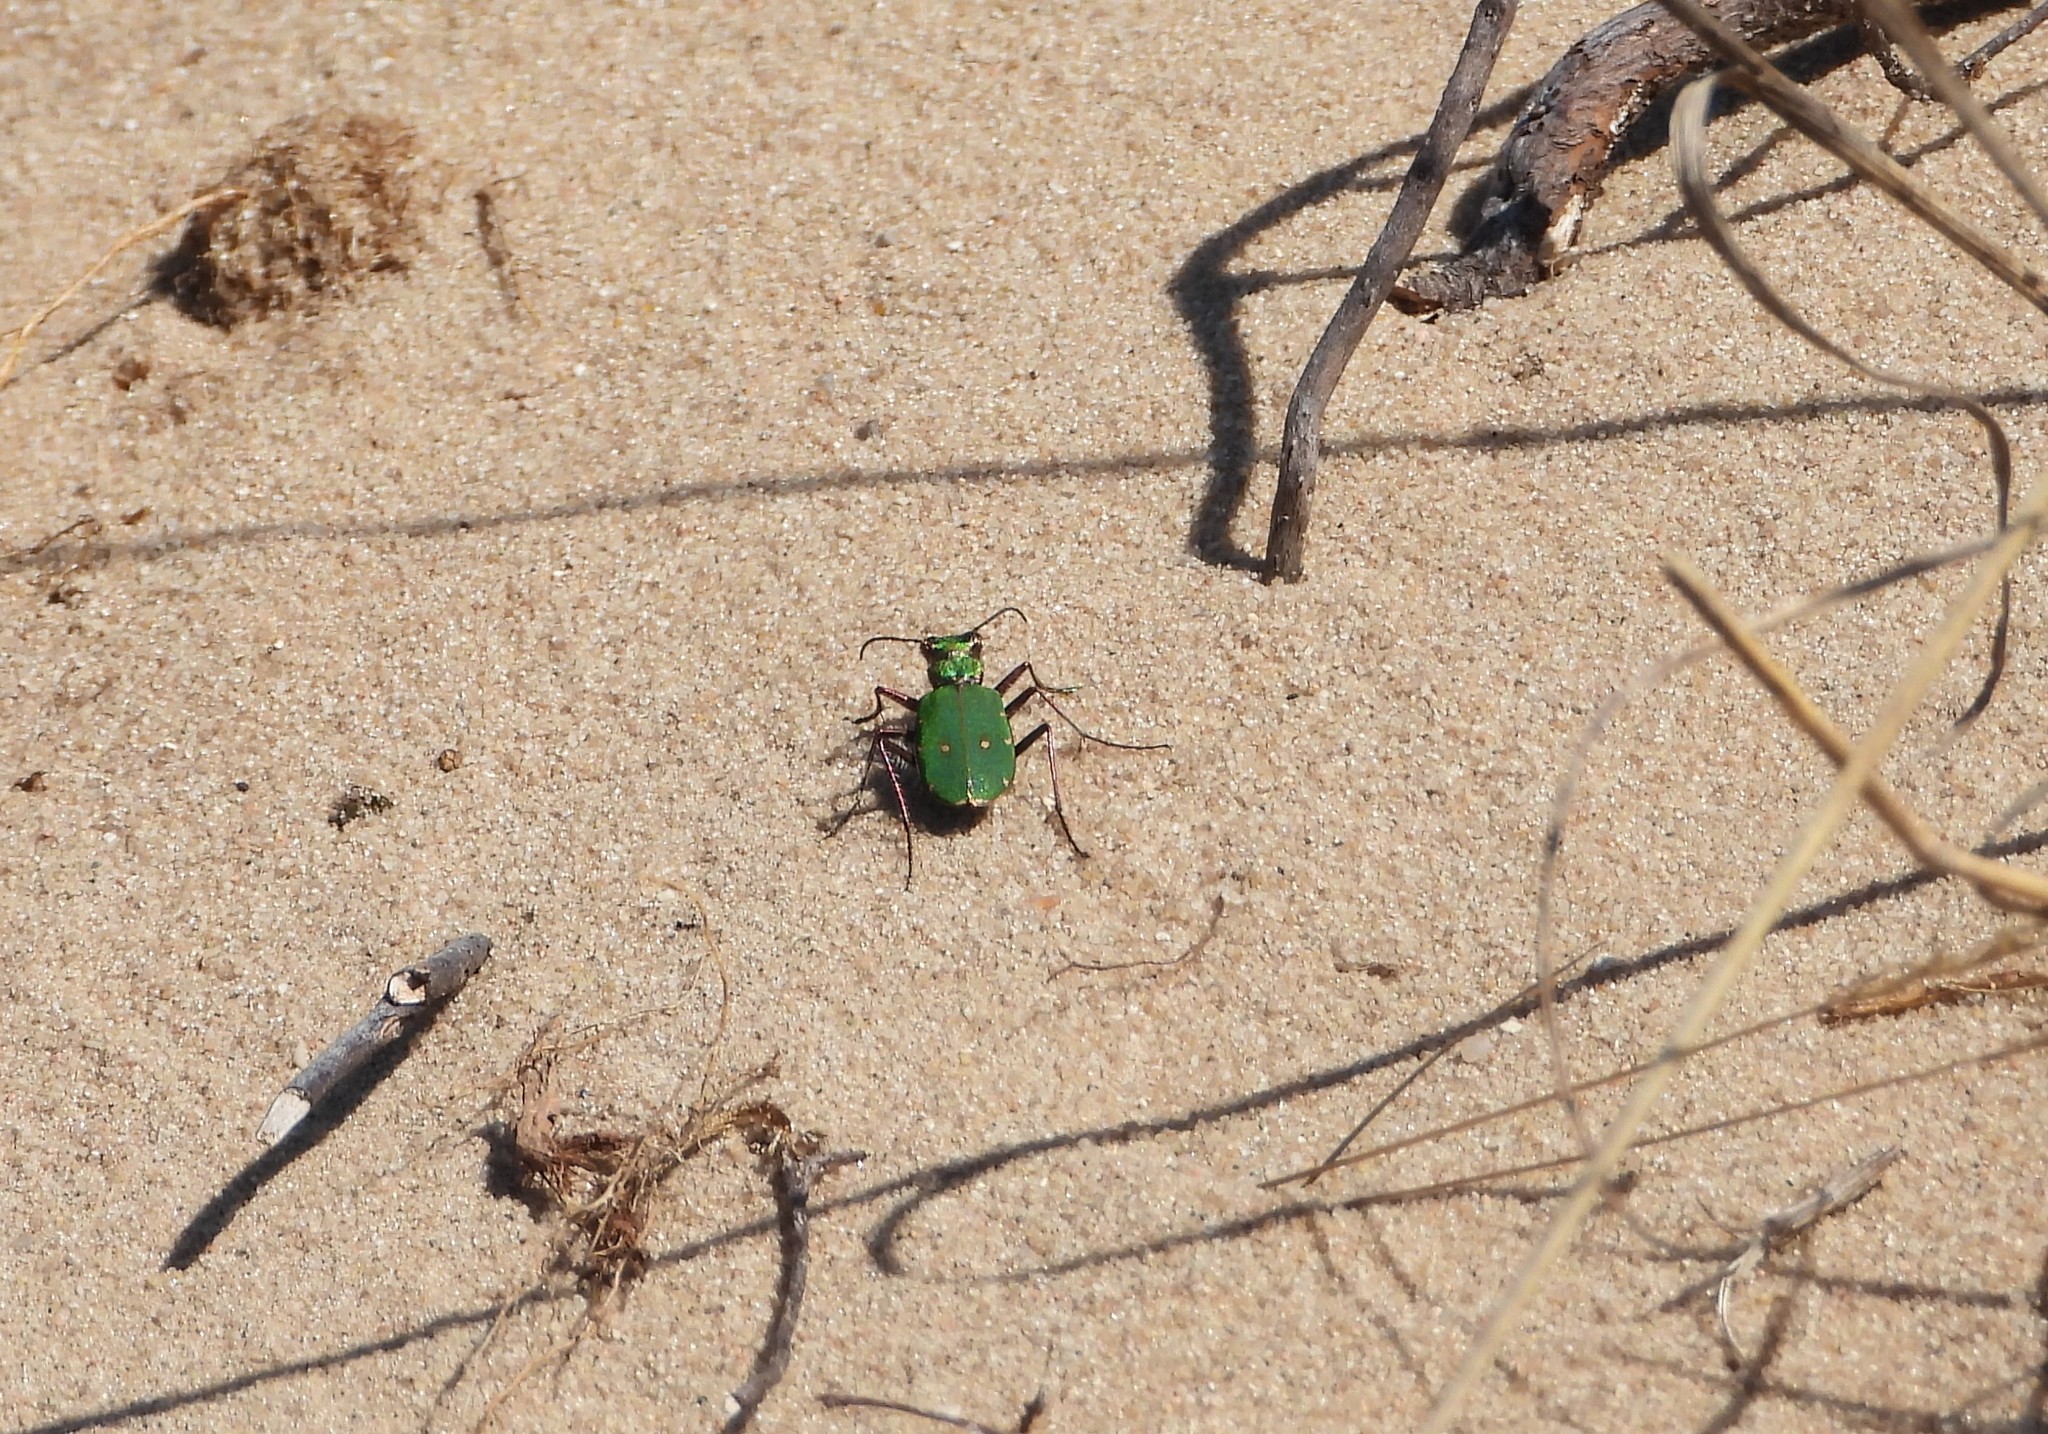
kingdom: Animalia
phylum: Arthropoda
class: Insecta
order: Coleoptera
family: Carabidae
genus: Cicindela
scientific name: Cicindela campestris
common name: Common tiger beetle
